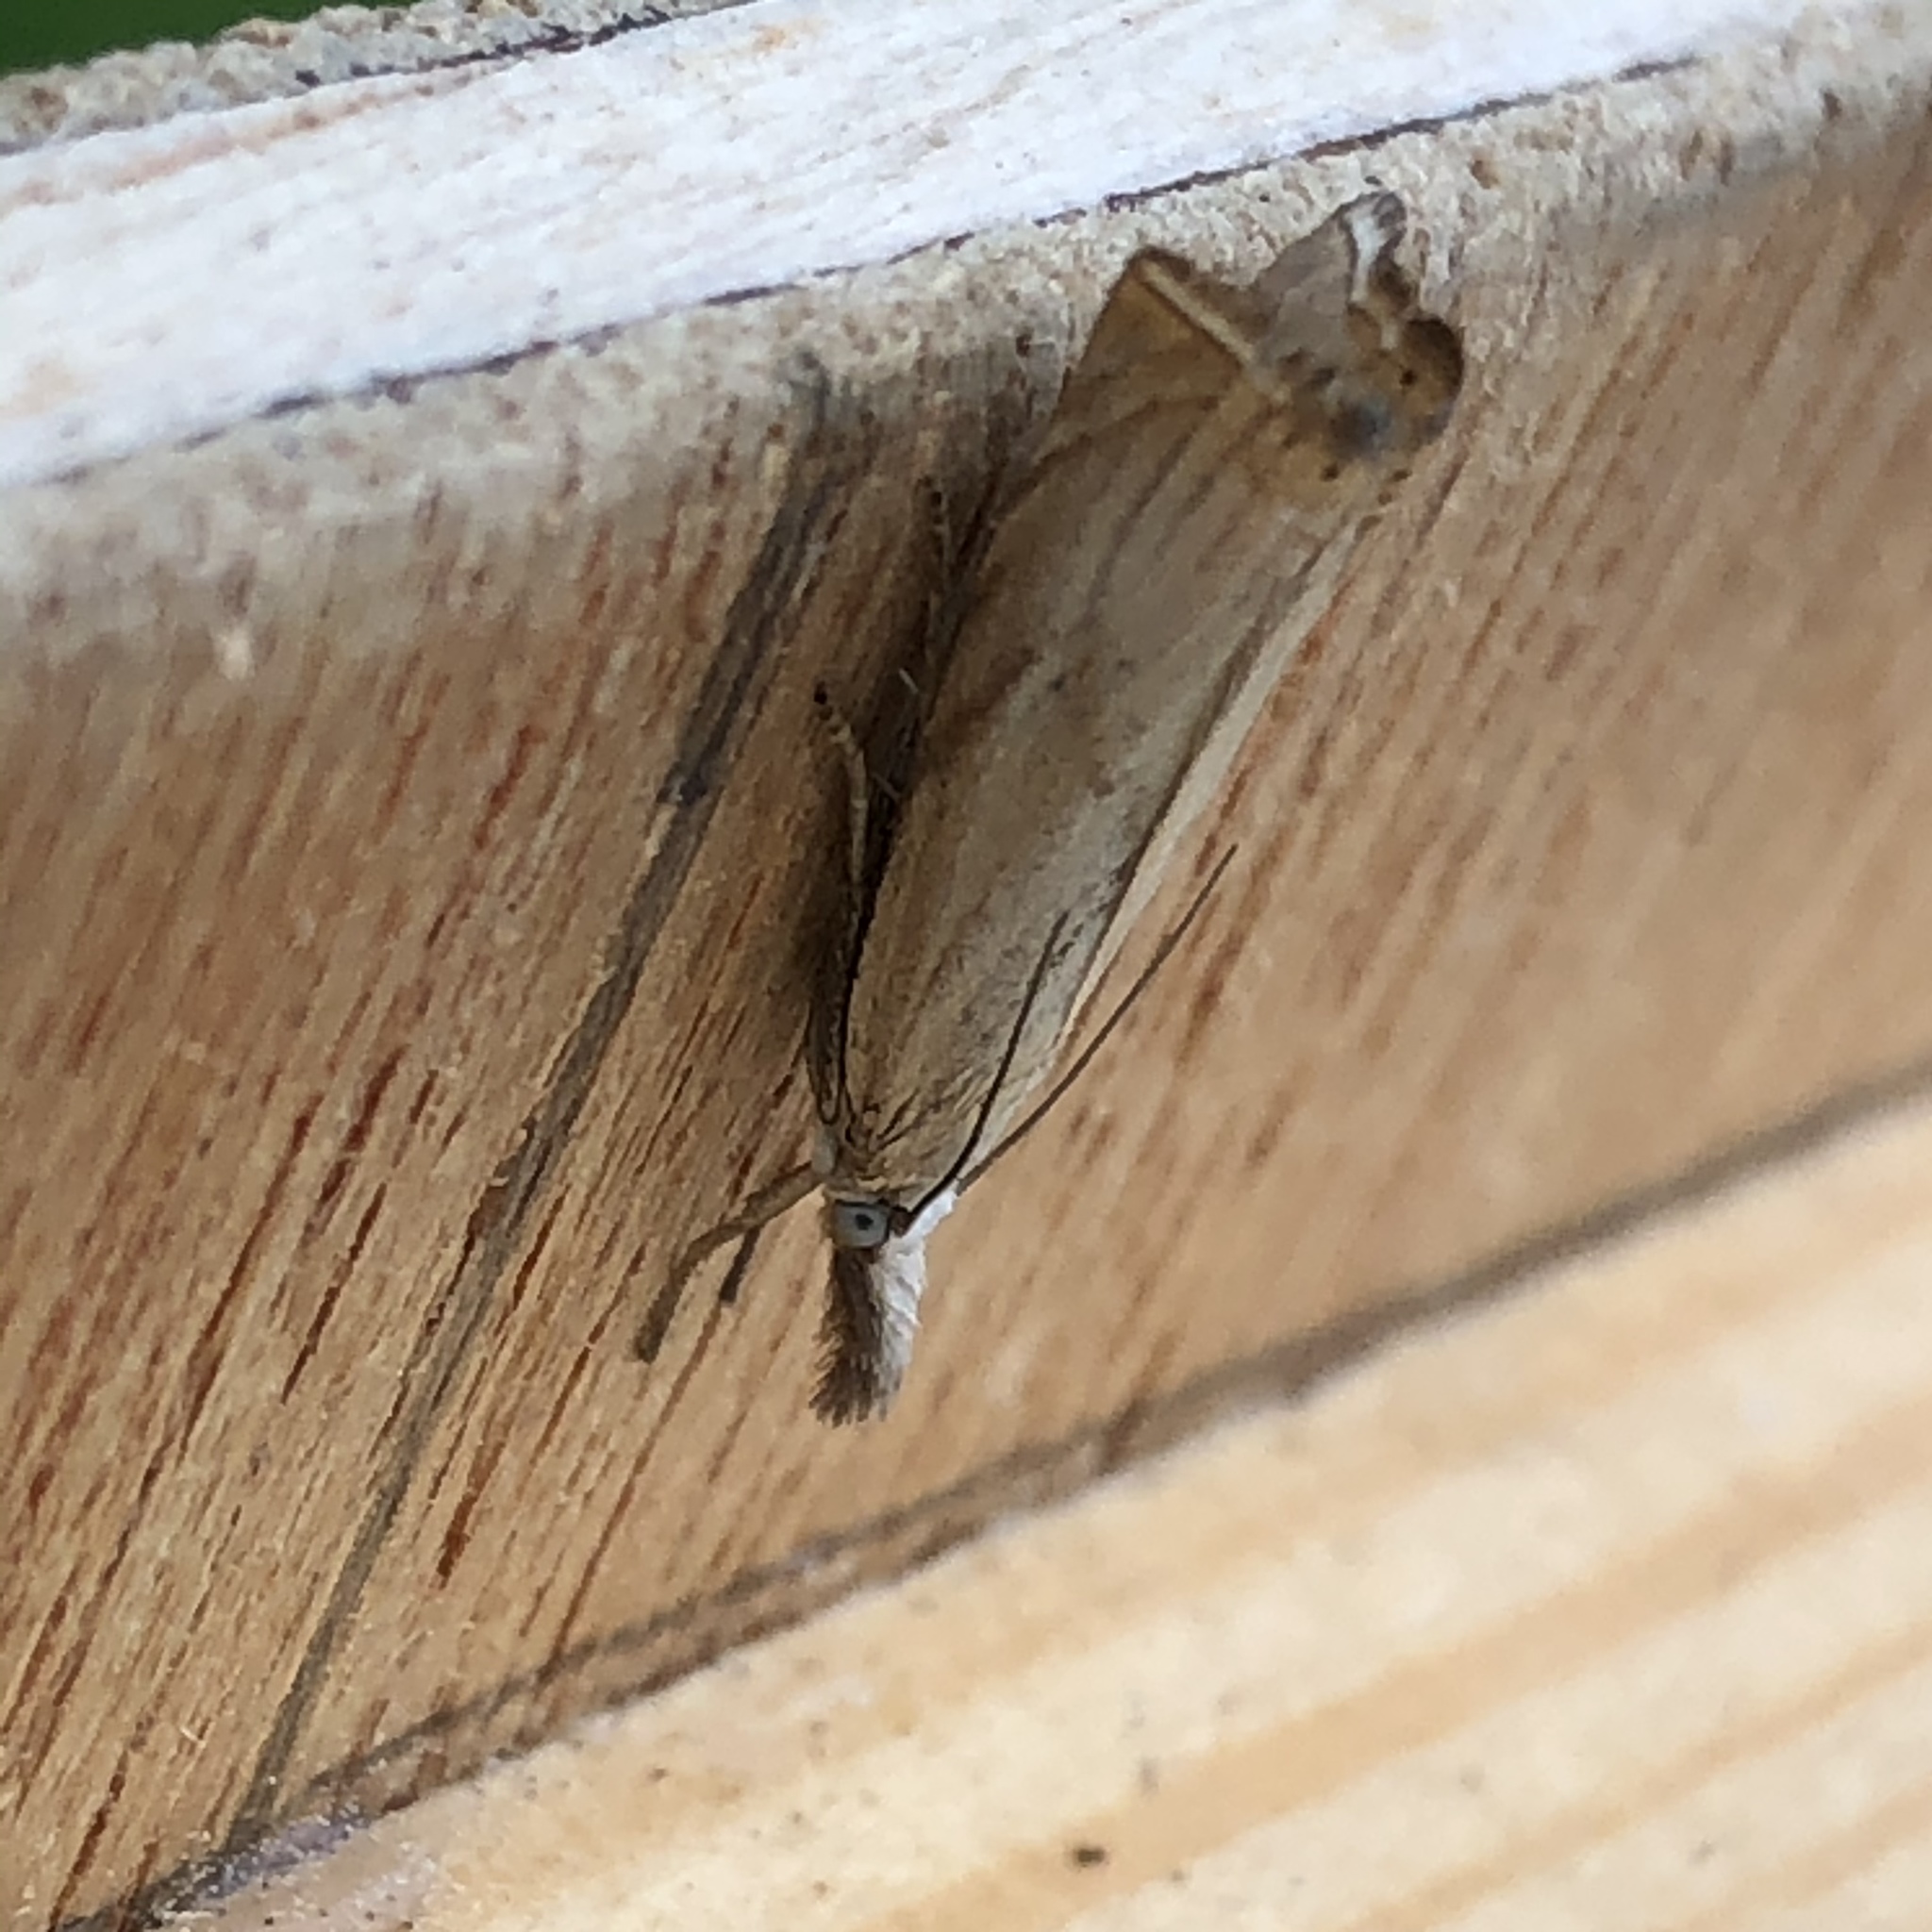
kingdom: Animalia
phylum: Arthropoda
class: Insecta
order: Lepidoptera
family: Crambidae
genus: Chrysoteuchia
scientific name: Chrysoteuchia culmella
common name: Garden grass-veneer
